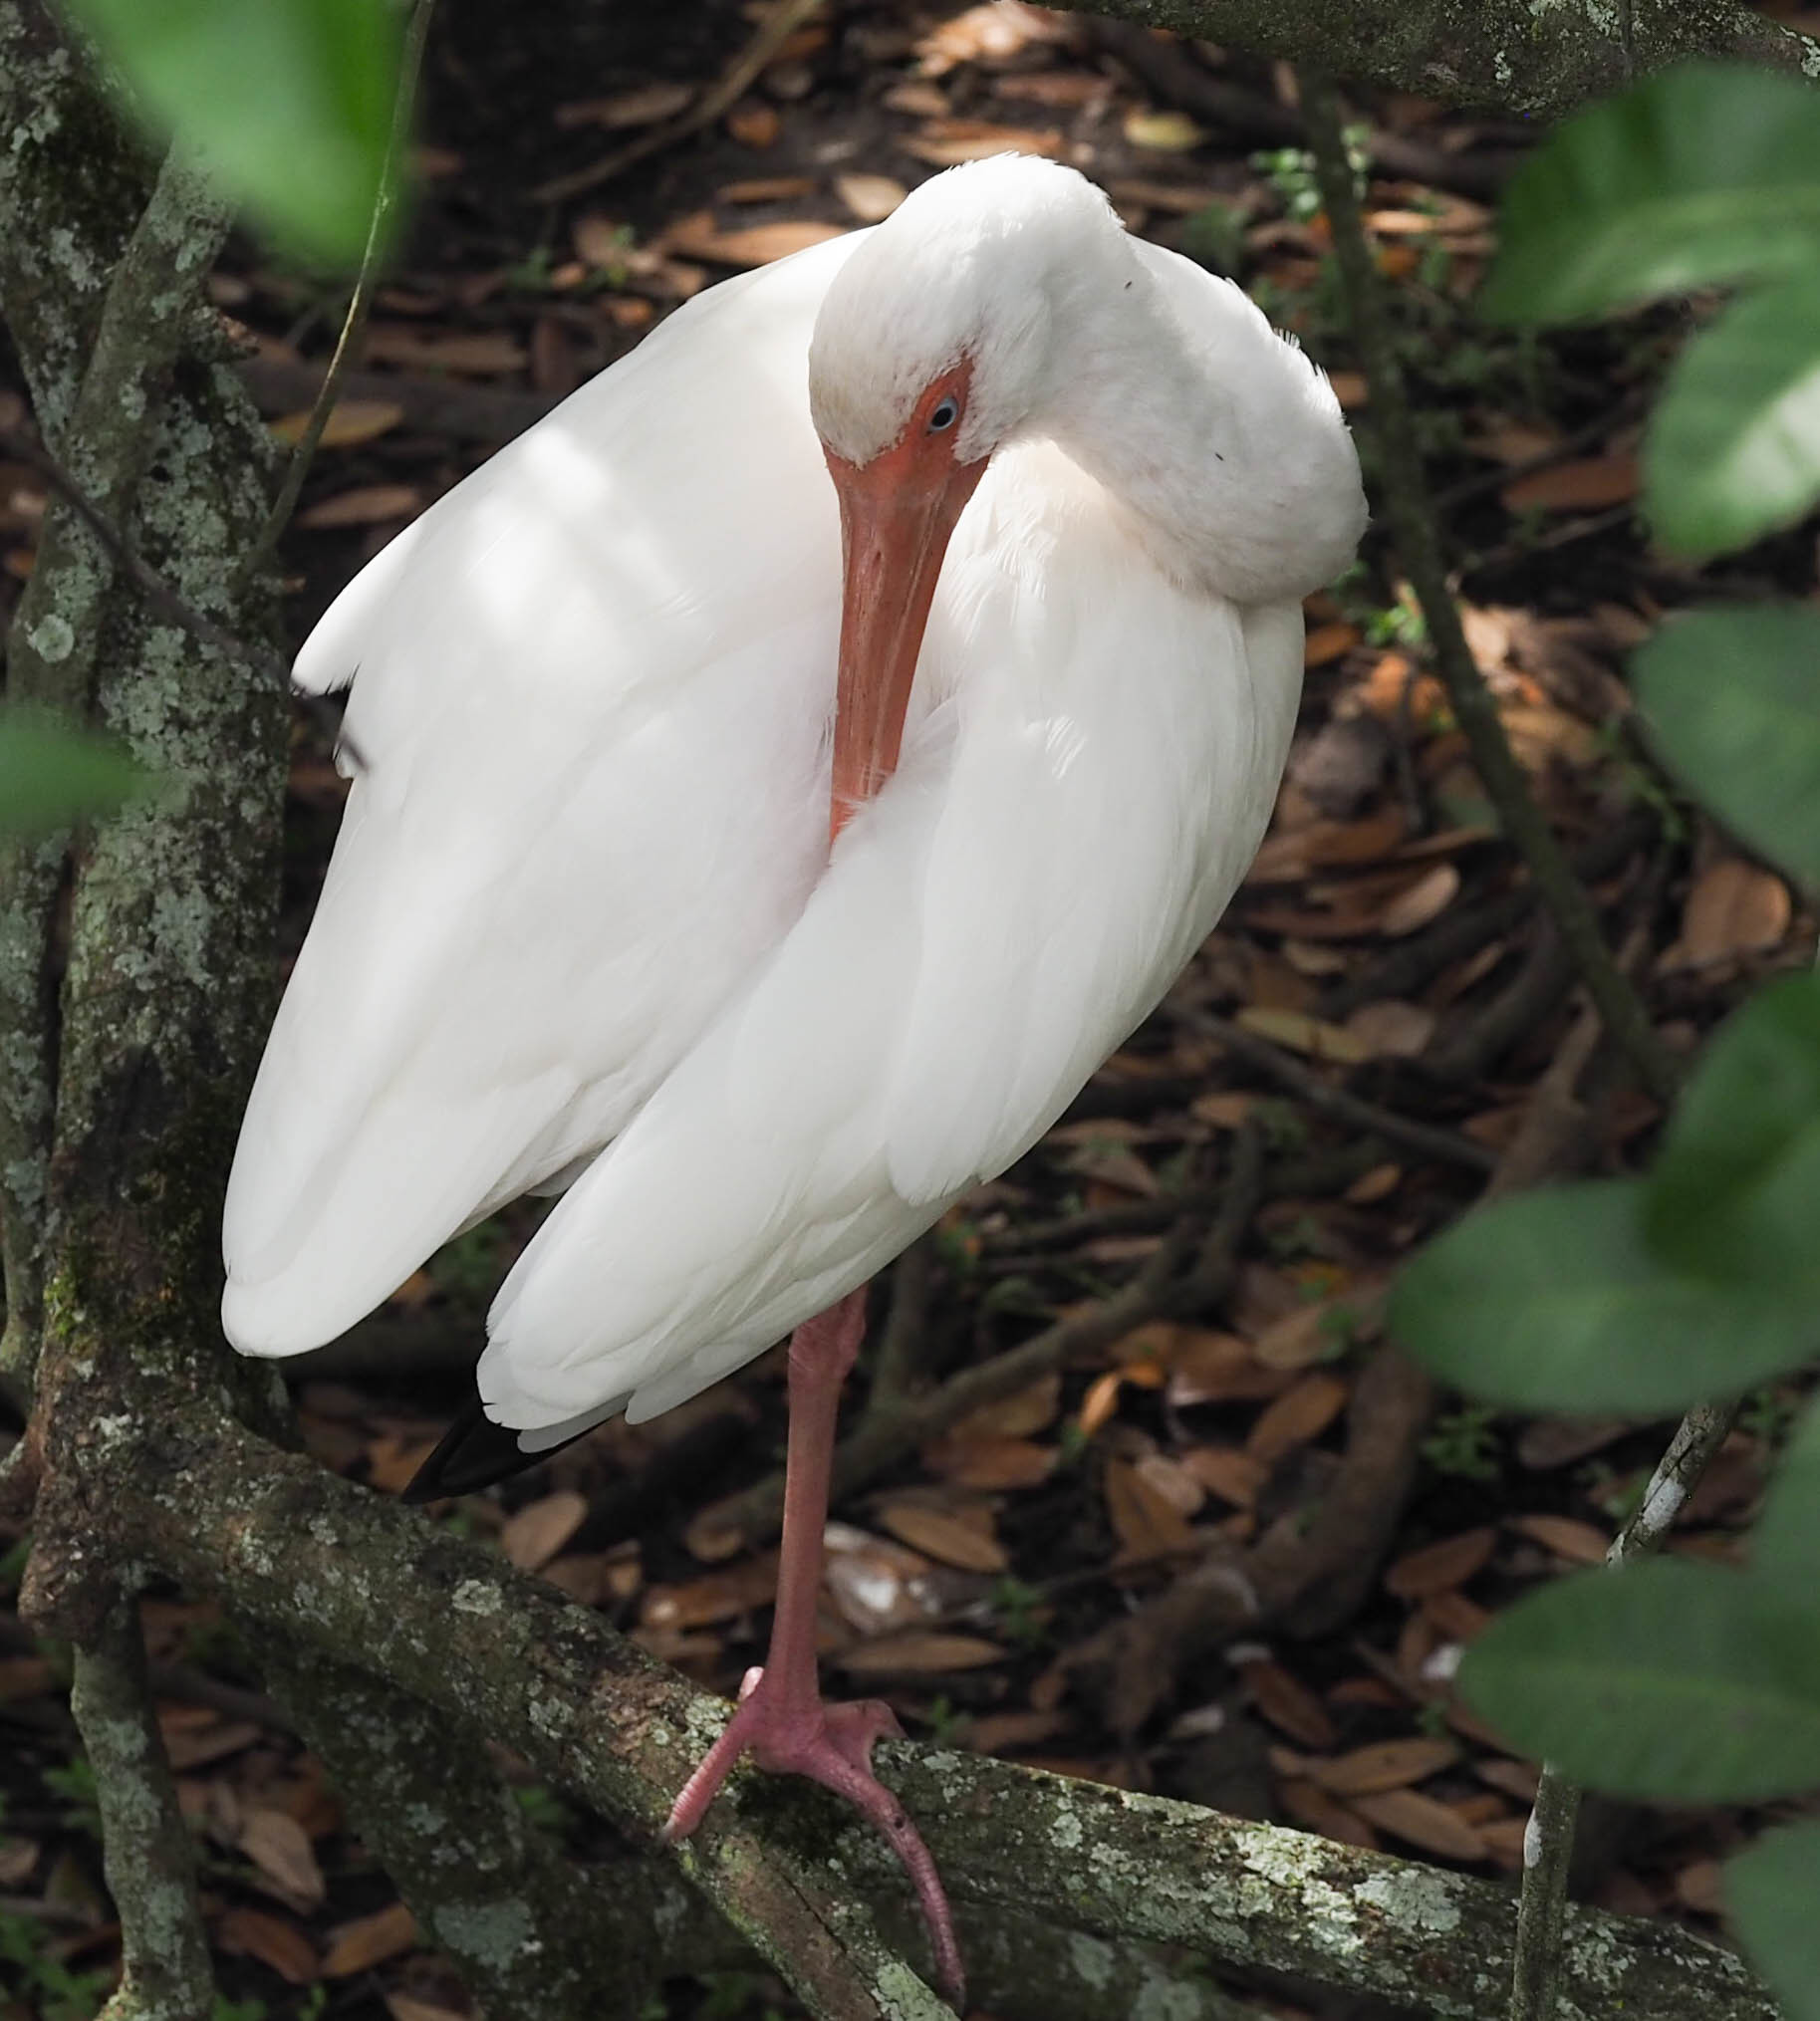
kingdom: Animalia
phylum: Chordata
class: Aves
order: Pelecaniformes
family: Threskiornithidae
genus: Eudocimus
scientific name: Eudocimus albus
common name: White ibis
